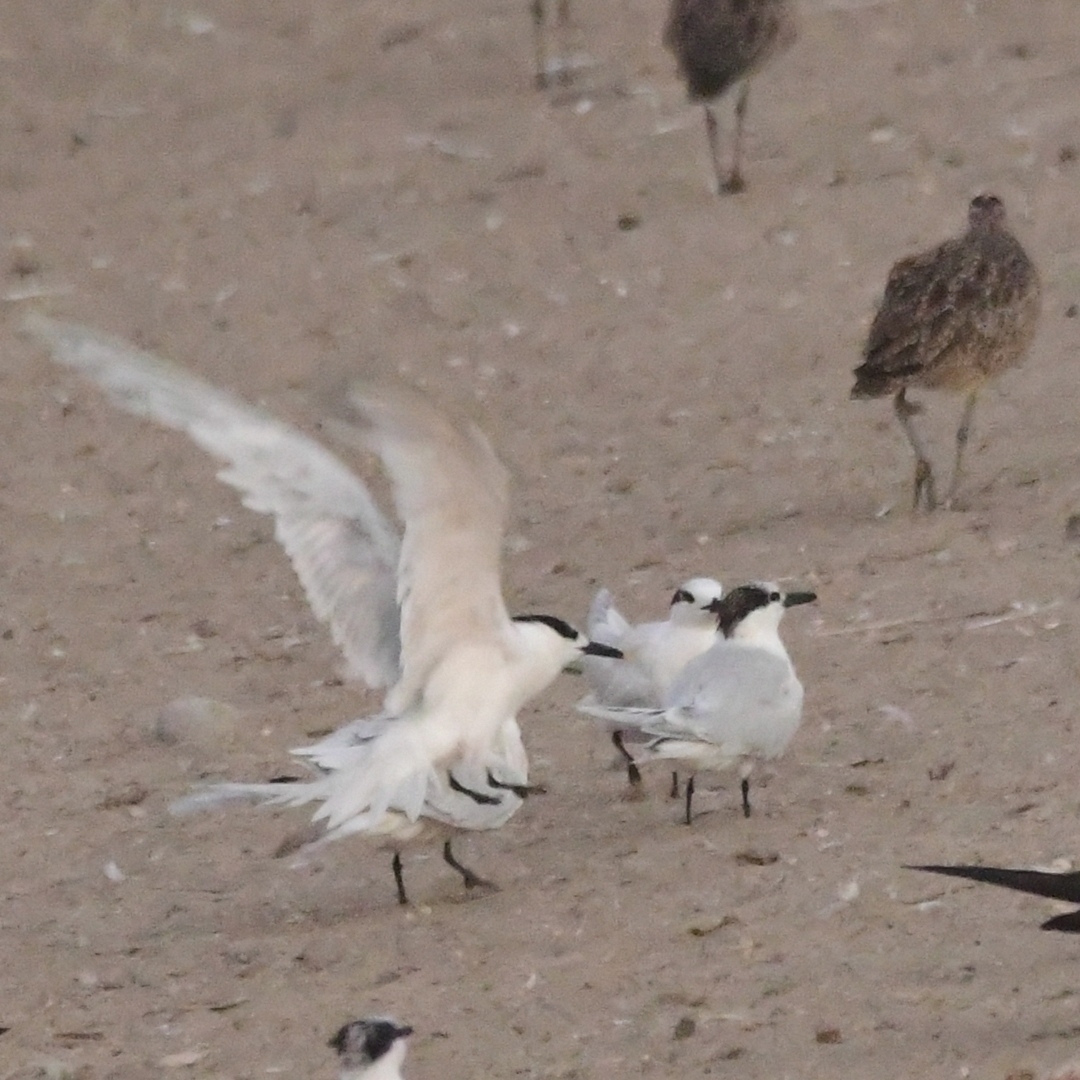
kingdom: Animalia
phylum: Chordata
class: Aves
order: Charadriiformes
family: Laridae
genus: Thalasseus
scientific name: Thalasseus sandvicensis
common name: Sandwich tern
